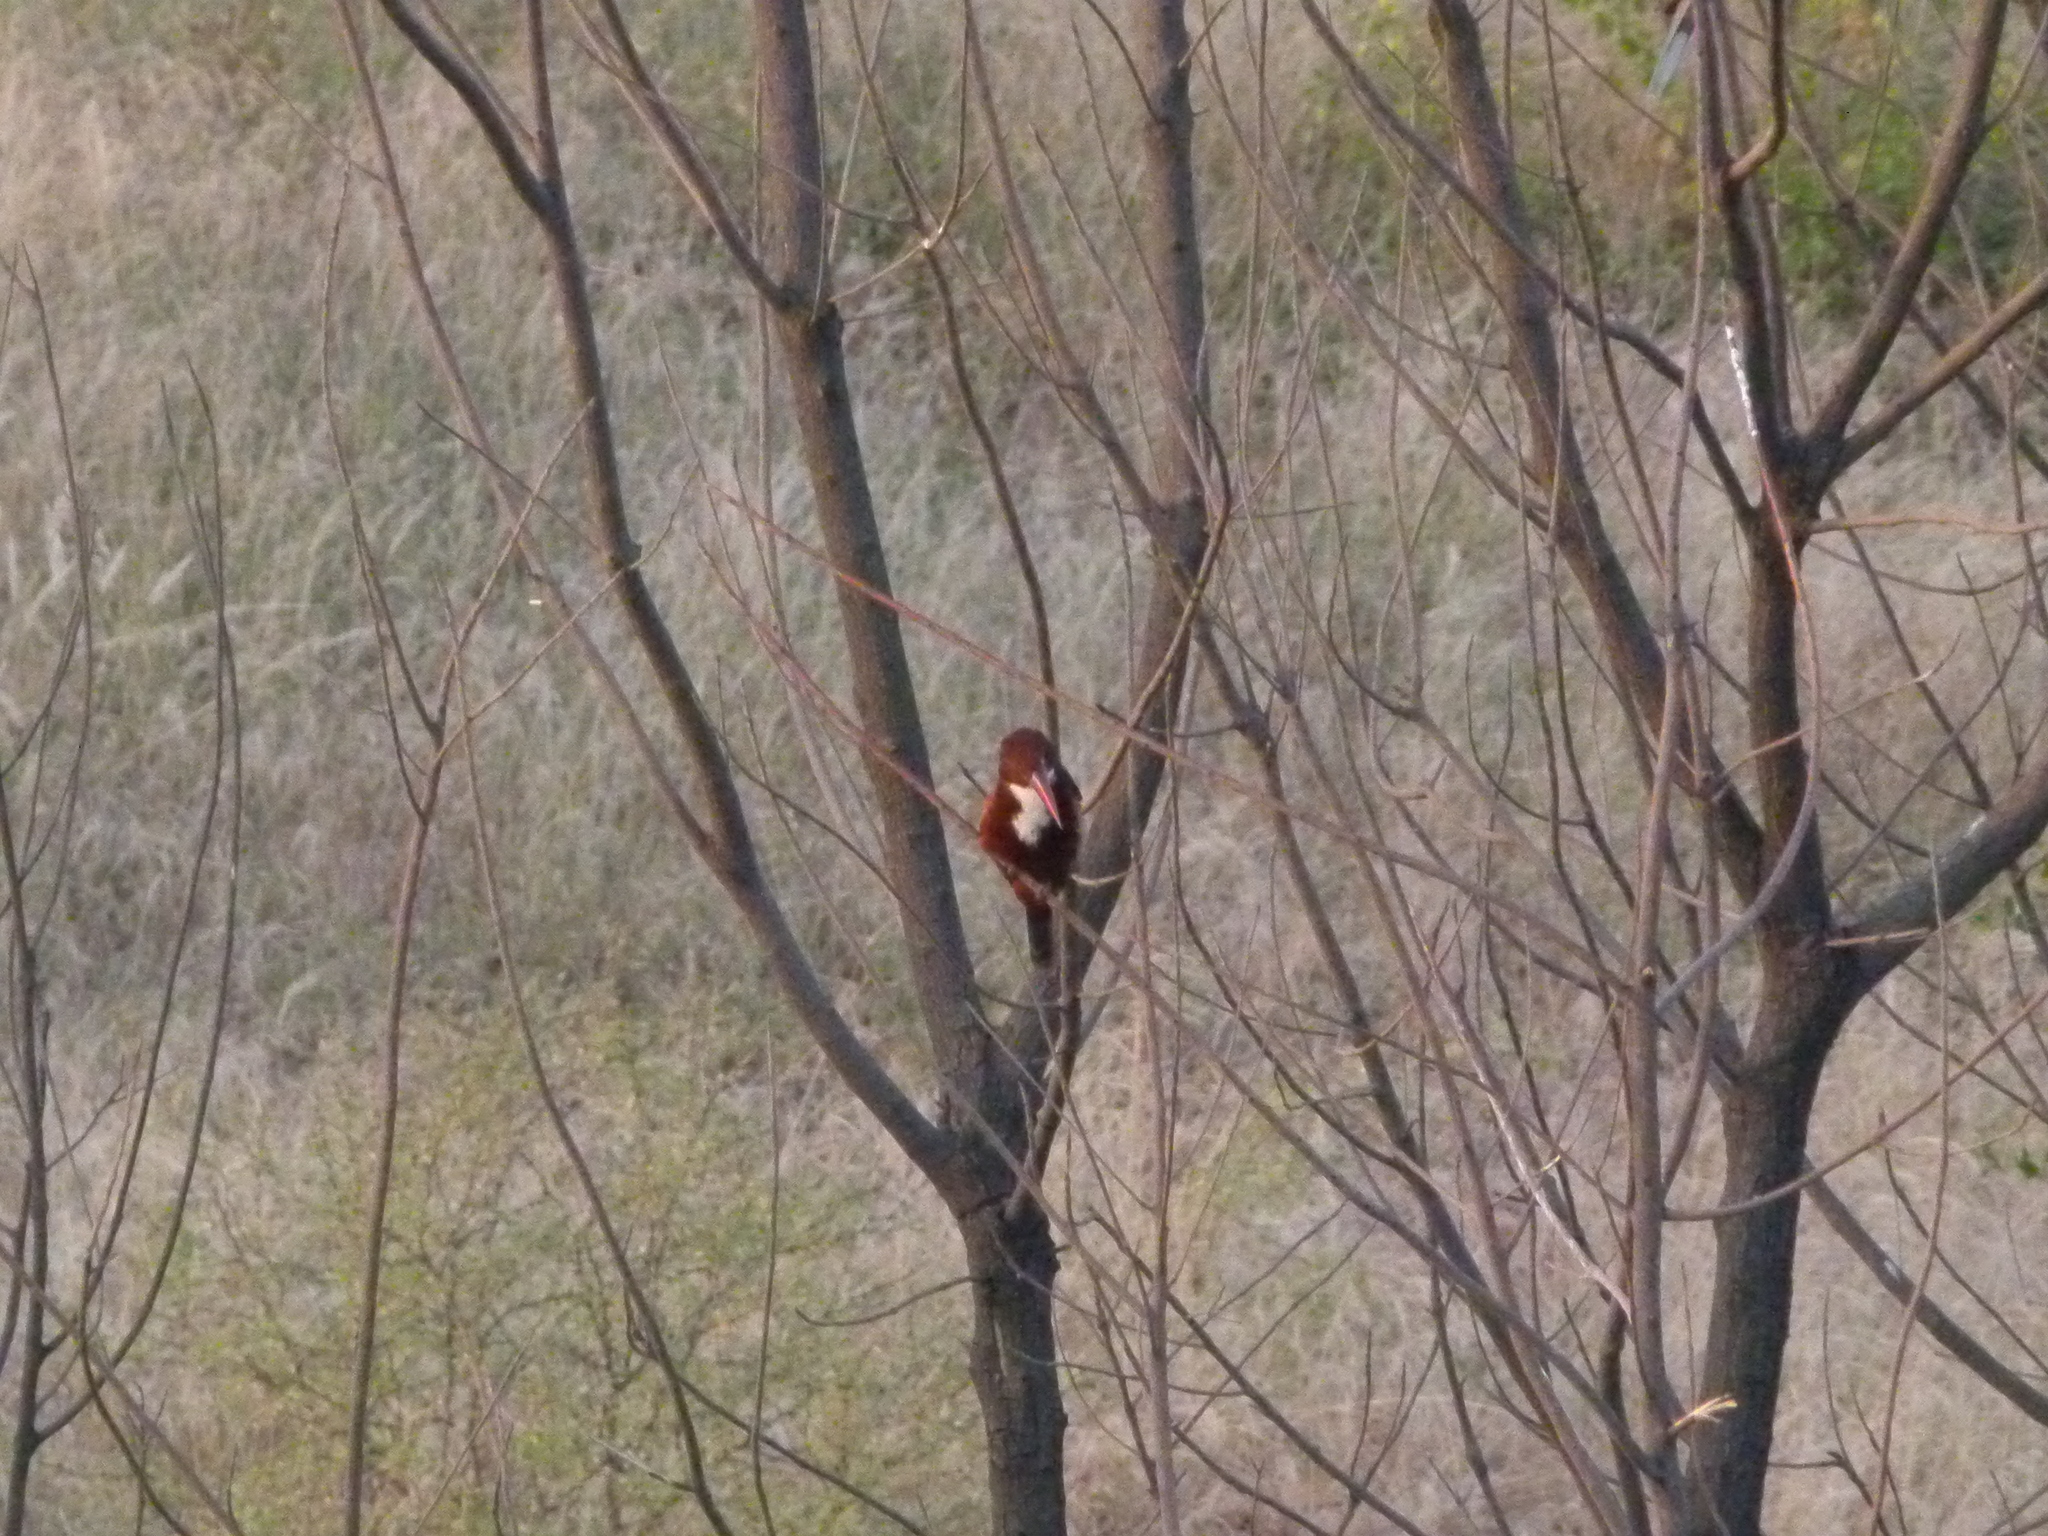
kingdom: Animalia
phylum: Chordata
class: Aves
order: Coraciiformes
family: Alcedinidae
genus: Halcyon
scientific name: Halcyon smyrnensis
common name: White-throated kingfisher
